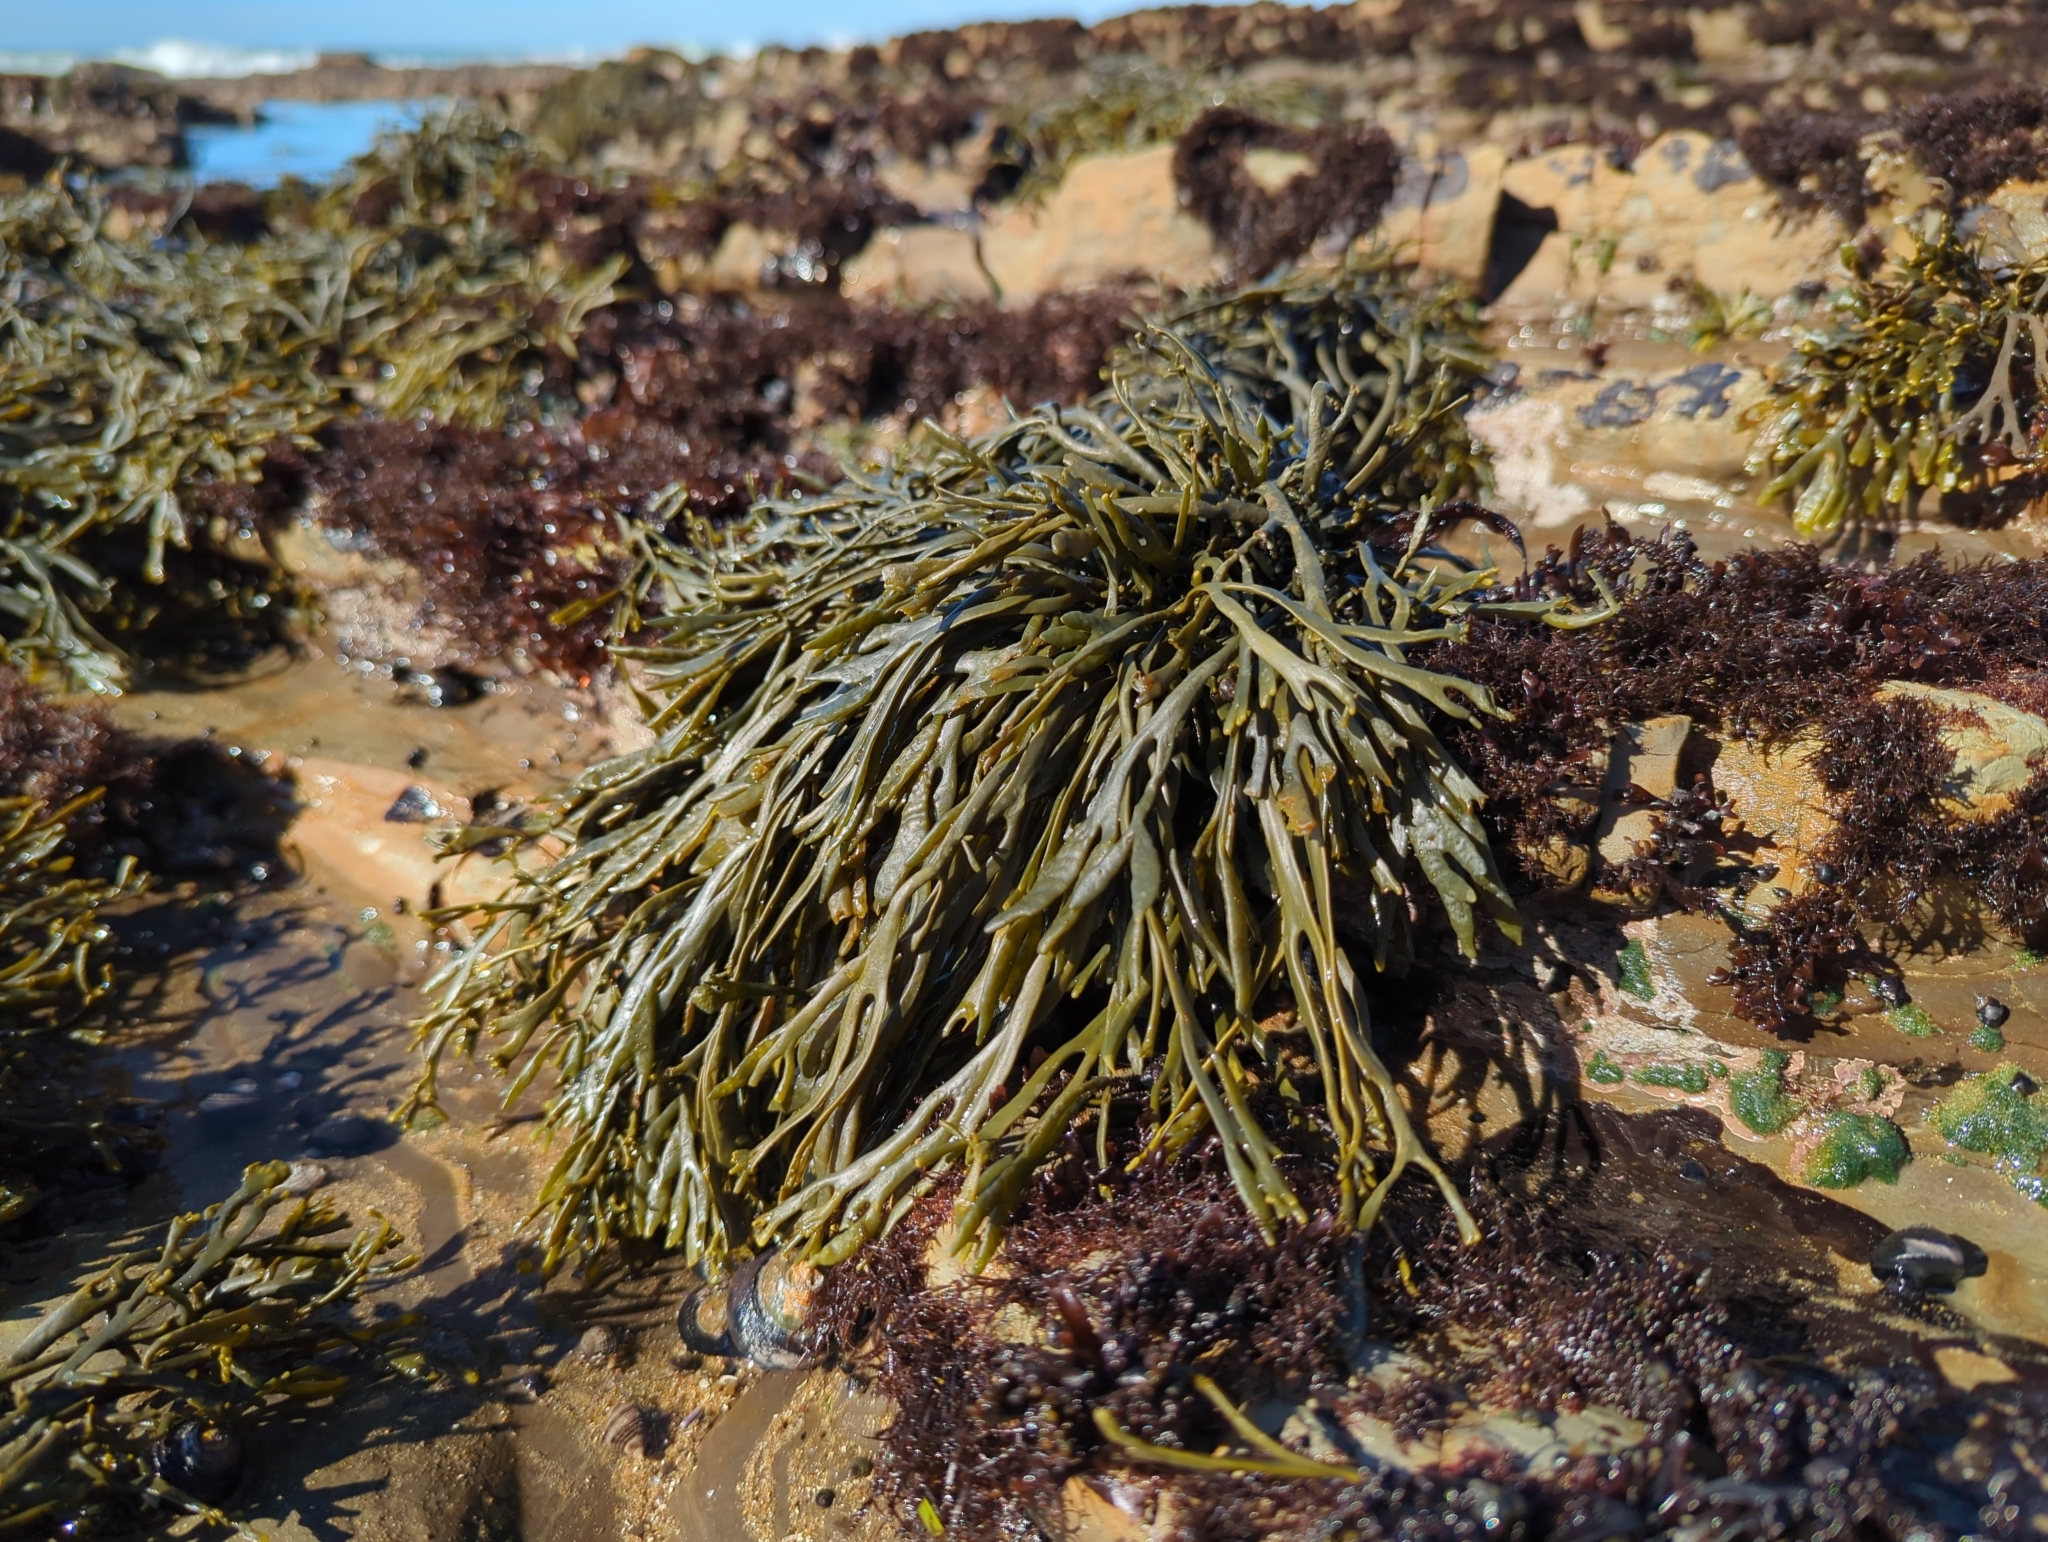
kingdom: Chromista
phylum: Ochrophyta
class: Phaeophyceae
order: Fucales
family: Fucaceae
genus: Silvetia
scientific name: Silvetia
